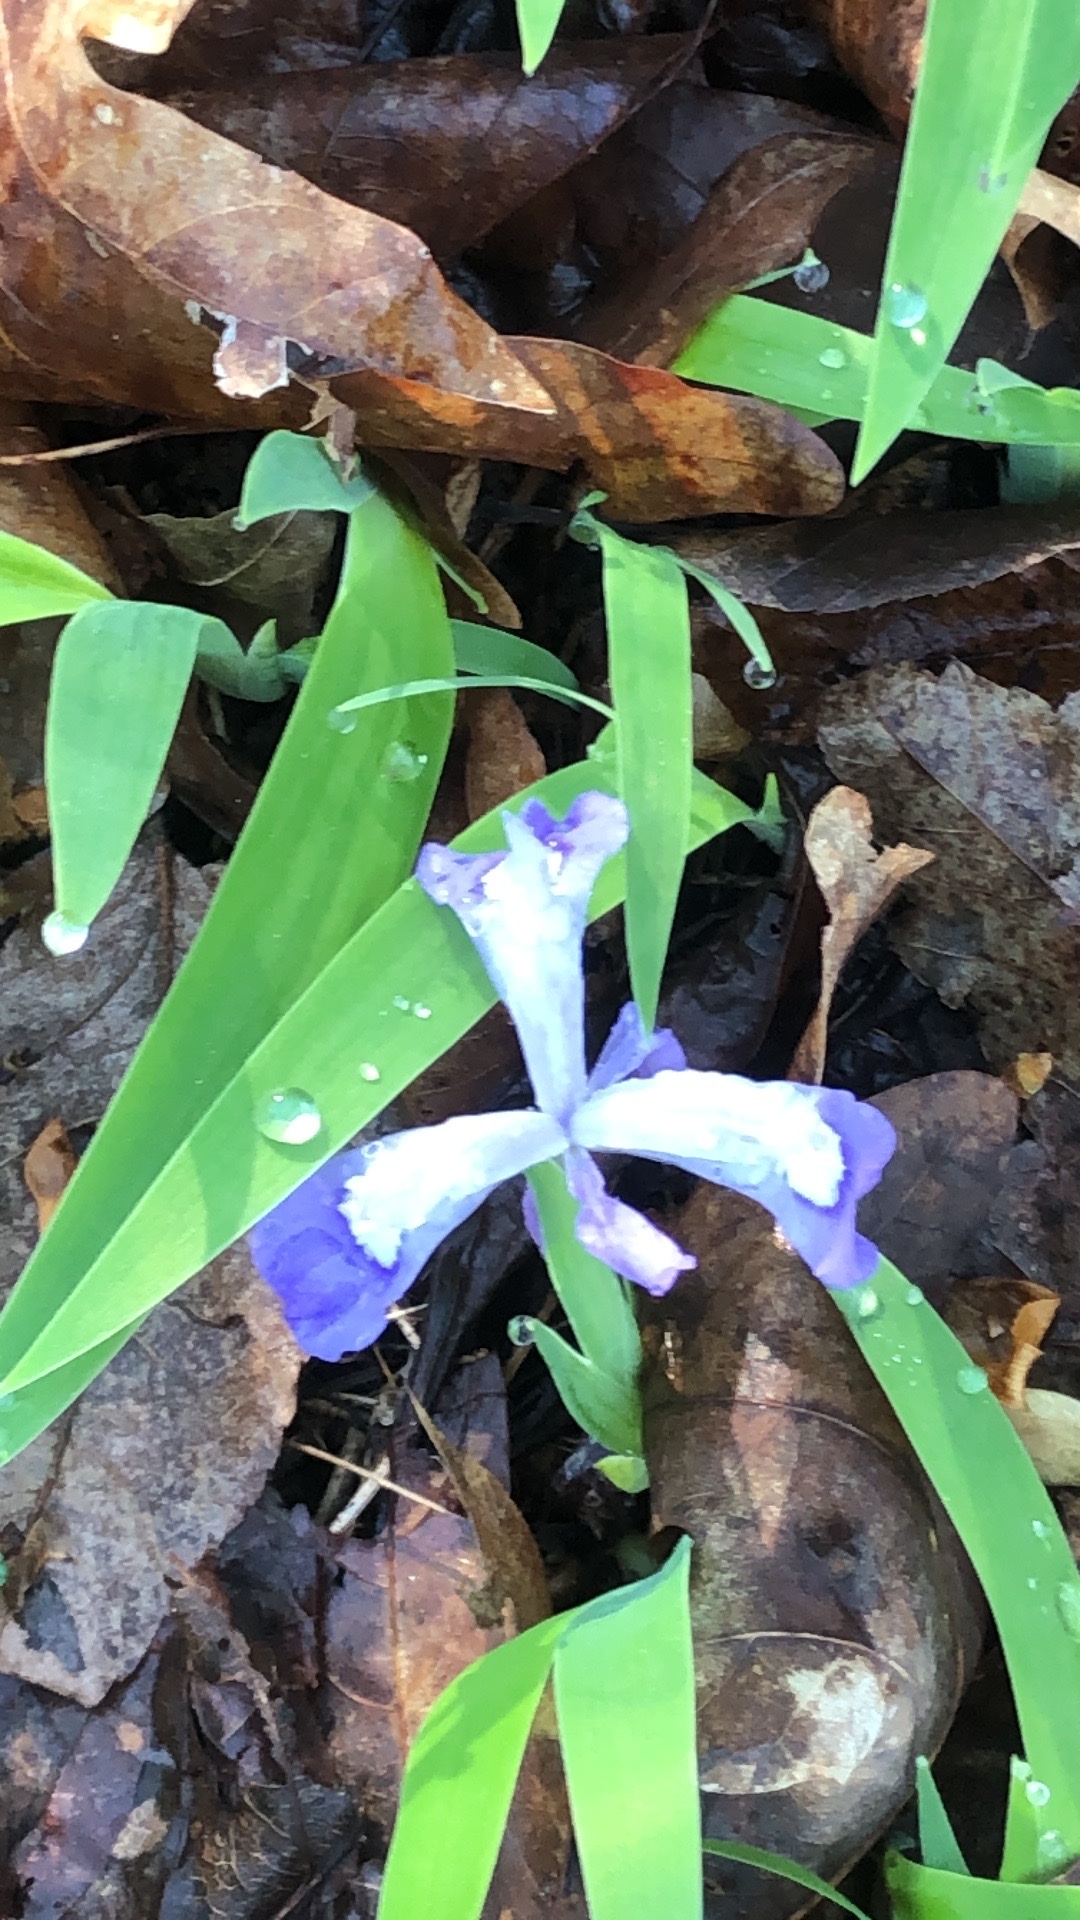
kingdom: Plantae
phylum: Tracheophyta
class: Liliopsida
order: Asparagales
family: Iridaceae
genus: Iris
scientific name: Iris cristata
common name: Crested iris
